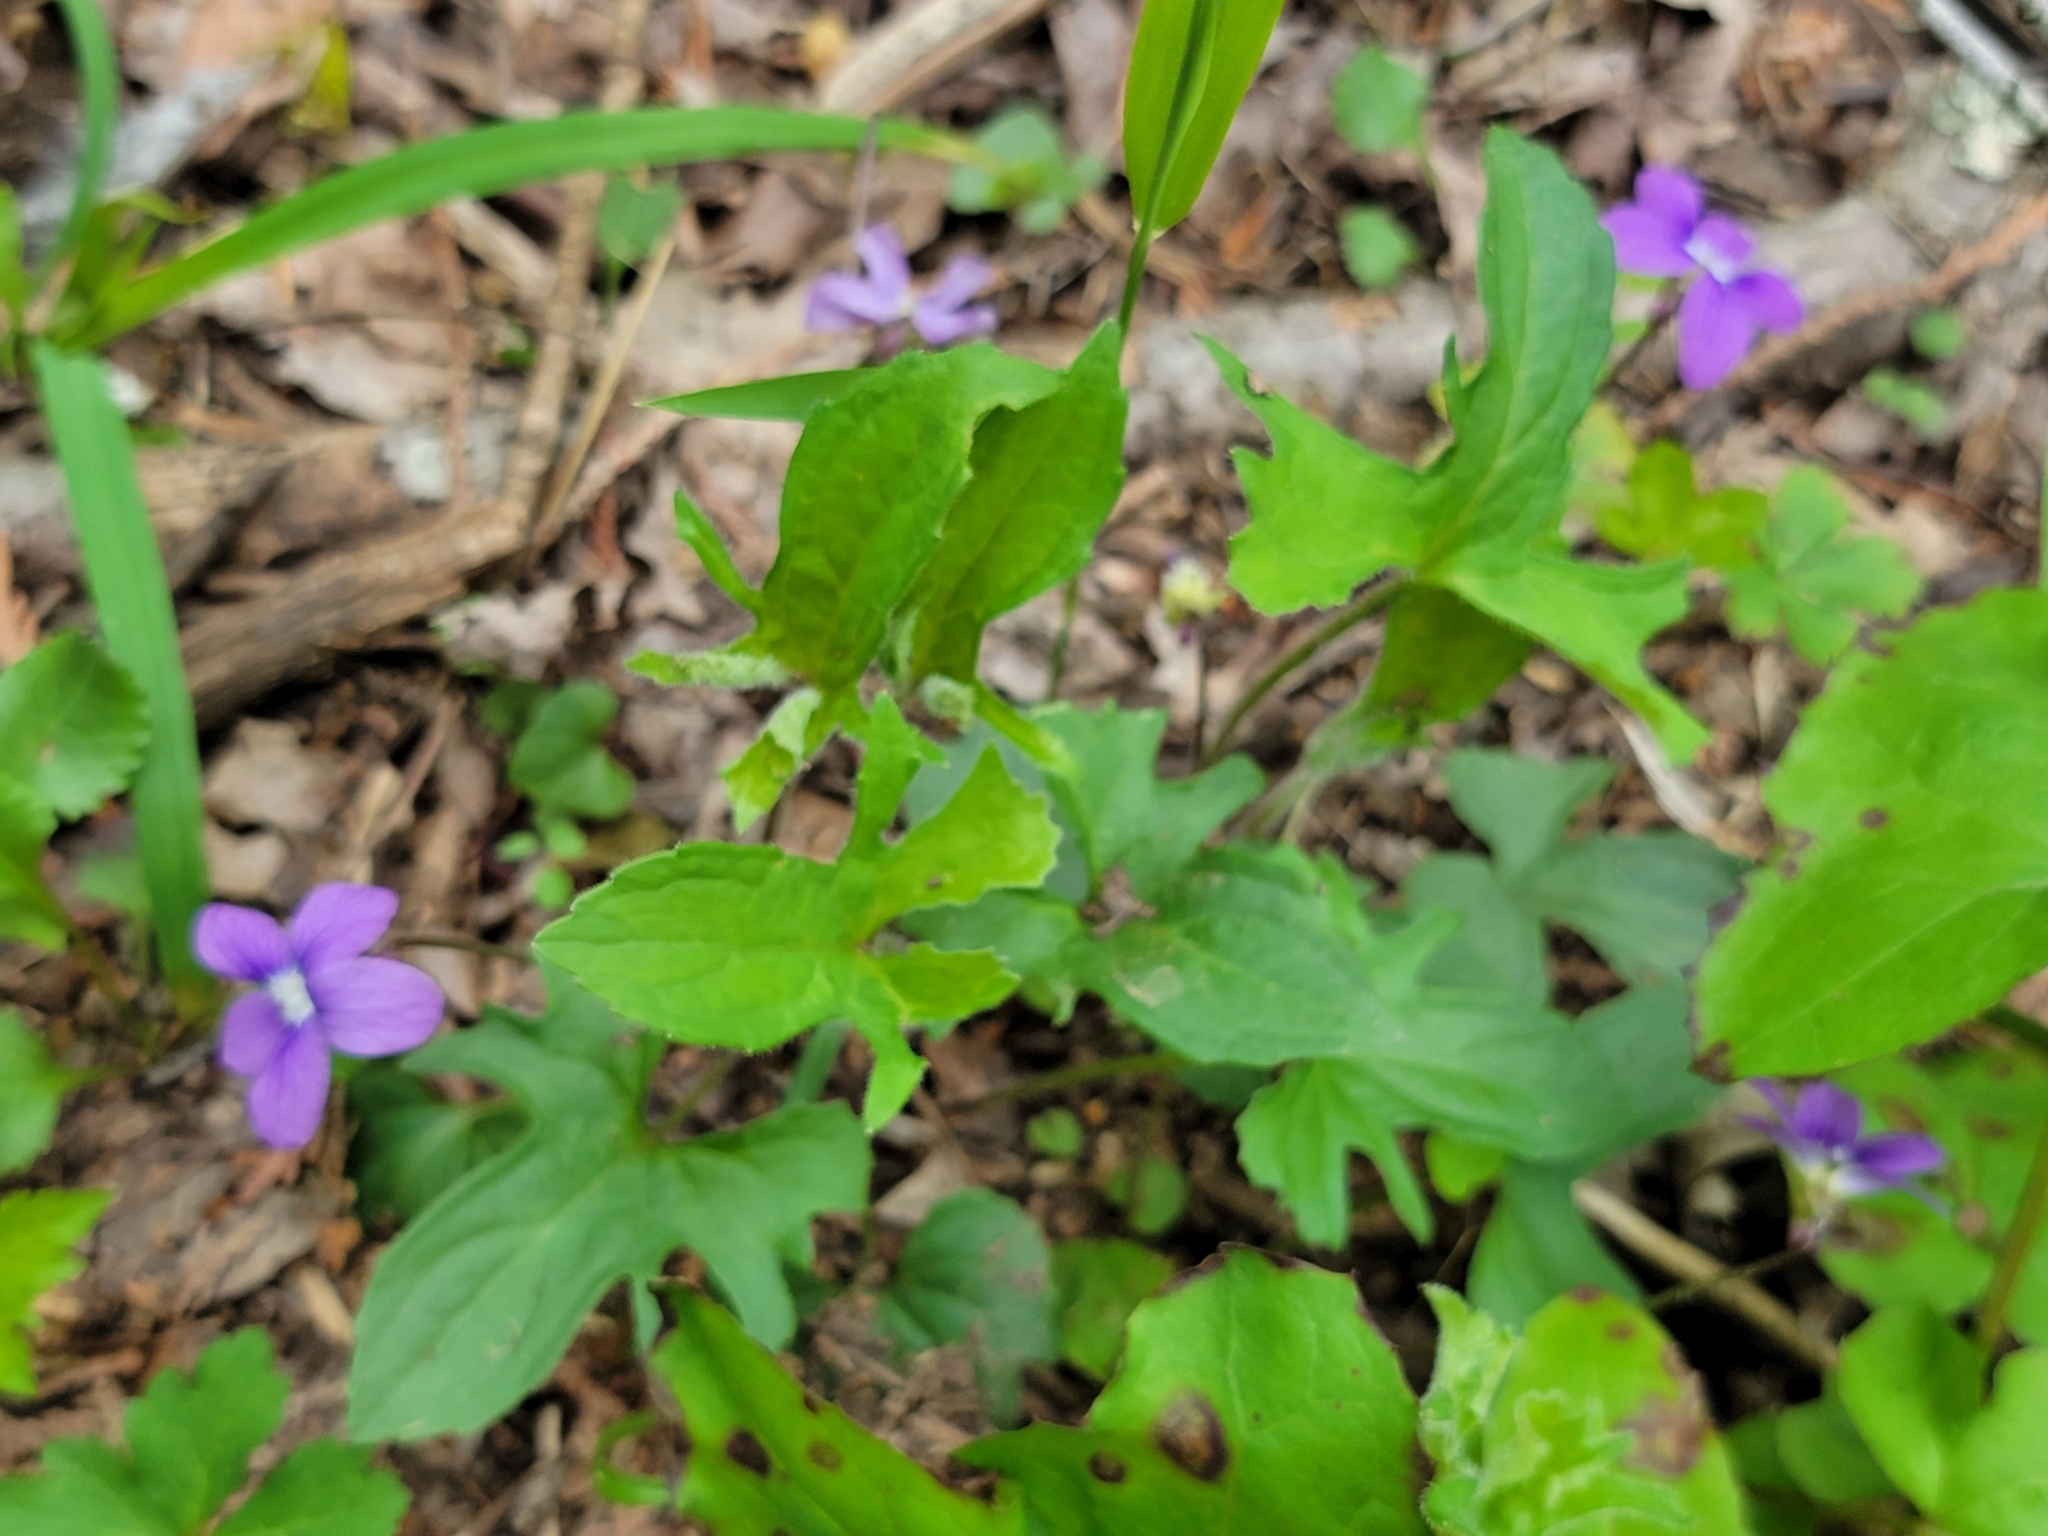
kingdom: Plantae
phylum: Tracheophyta
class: Magnoliopsida
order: Malpighiales
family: Violaceae
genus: Viola
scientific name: Viola palmata
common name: Early blue violet
